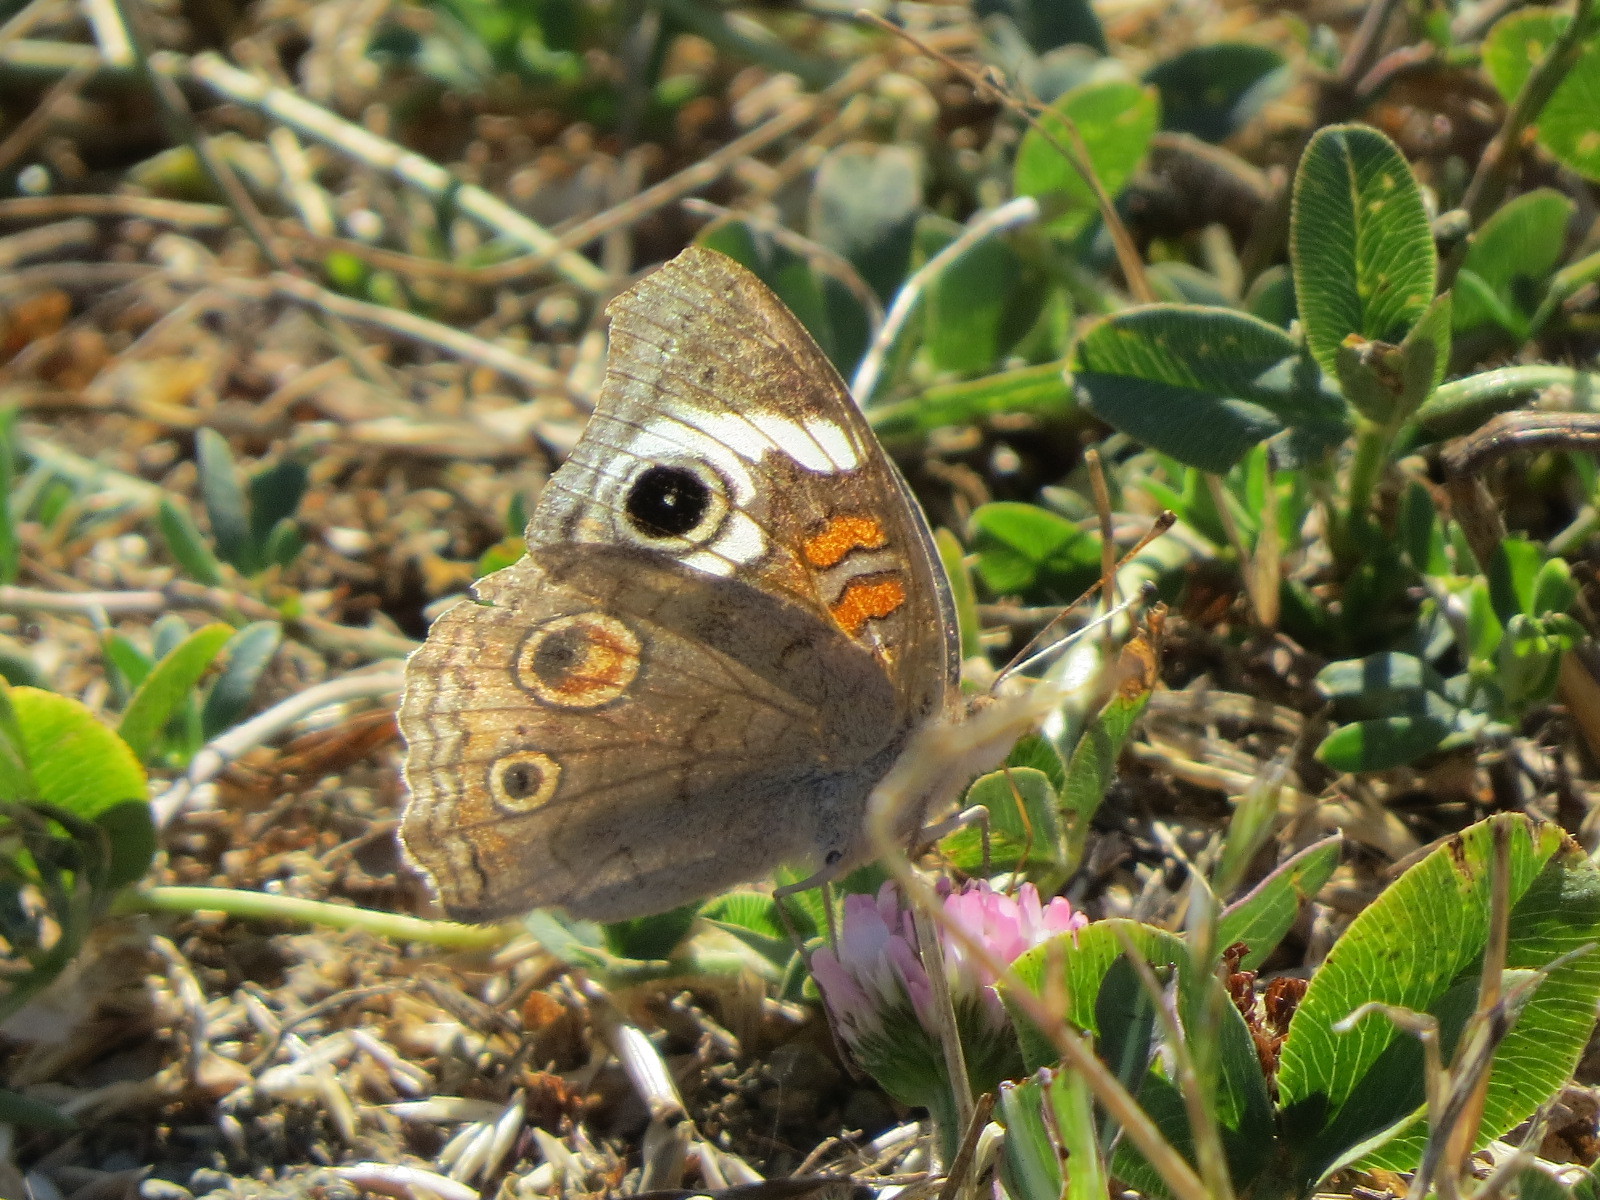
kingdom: Animalia
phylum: Arthropoda
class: Insecta
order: Lepidoptera
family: Nymphalidae
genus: Junonia
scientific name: Junonia grisea
